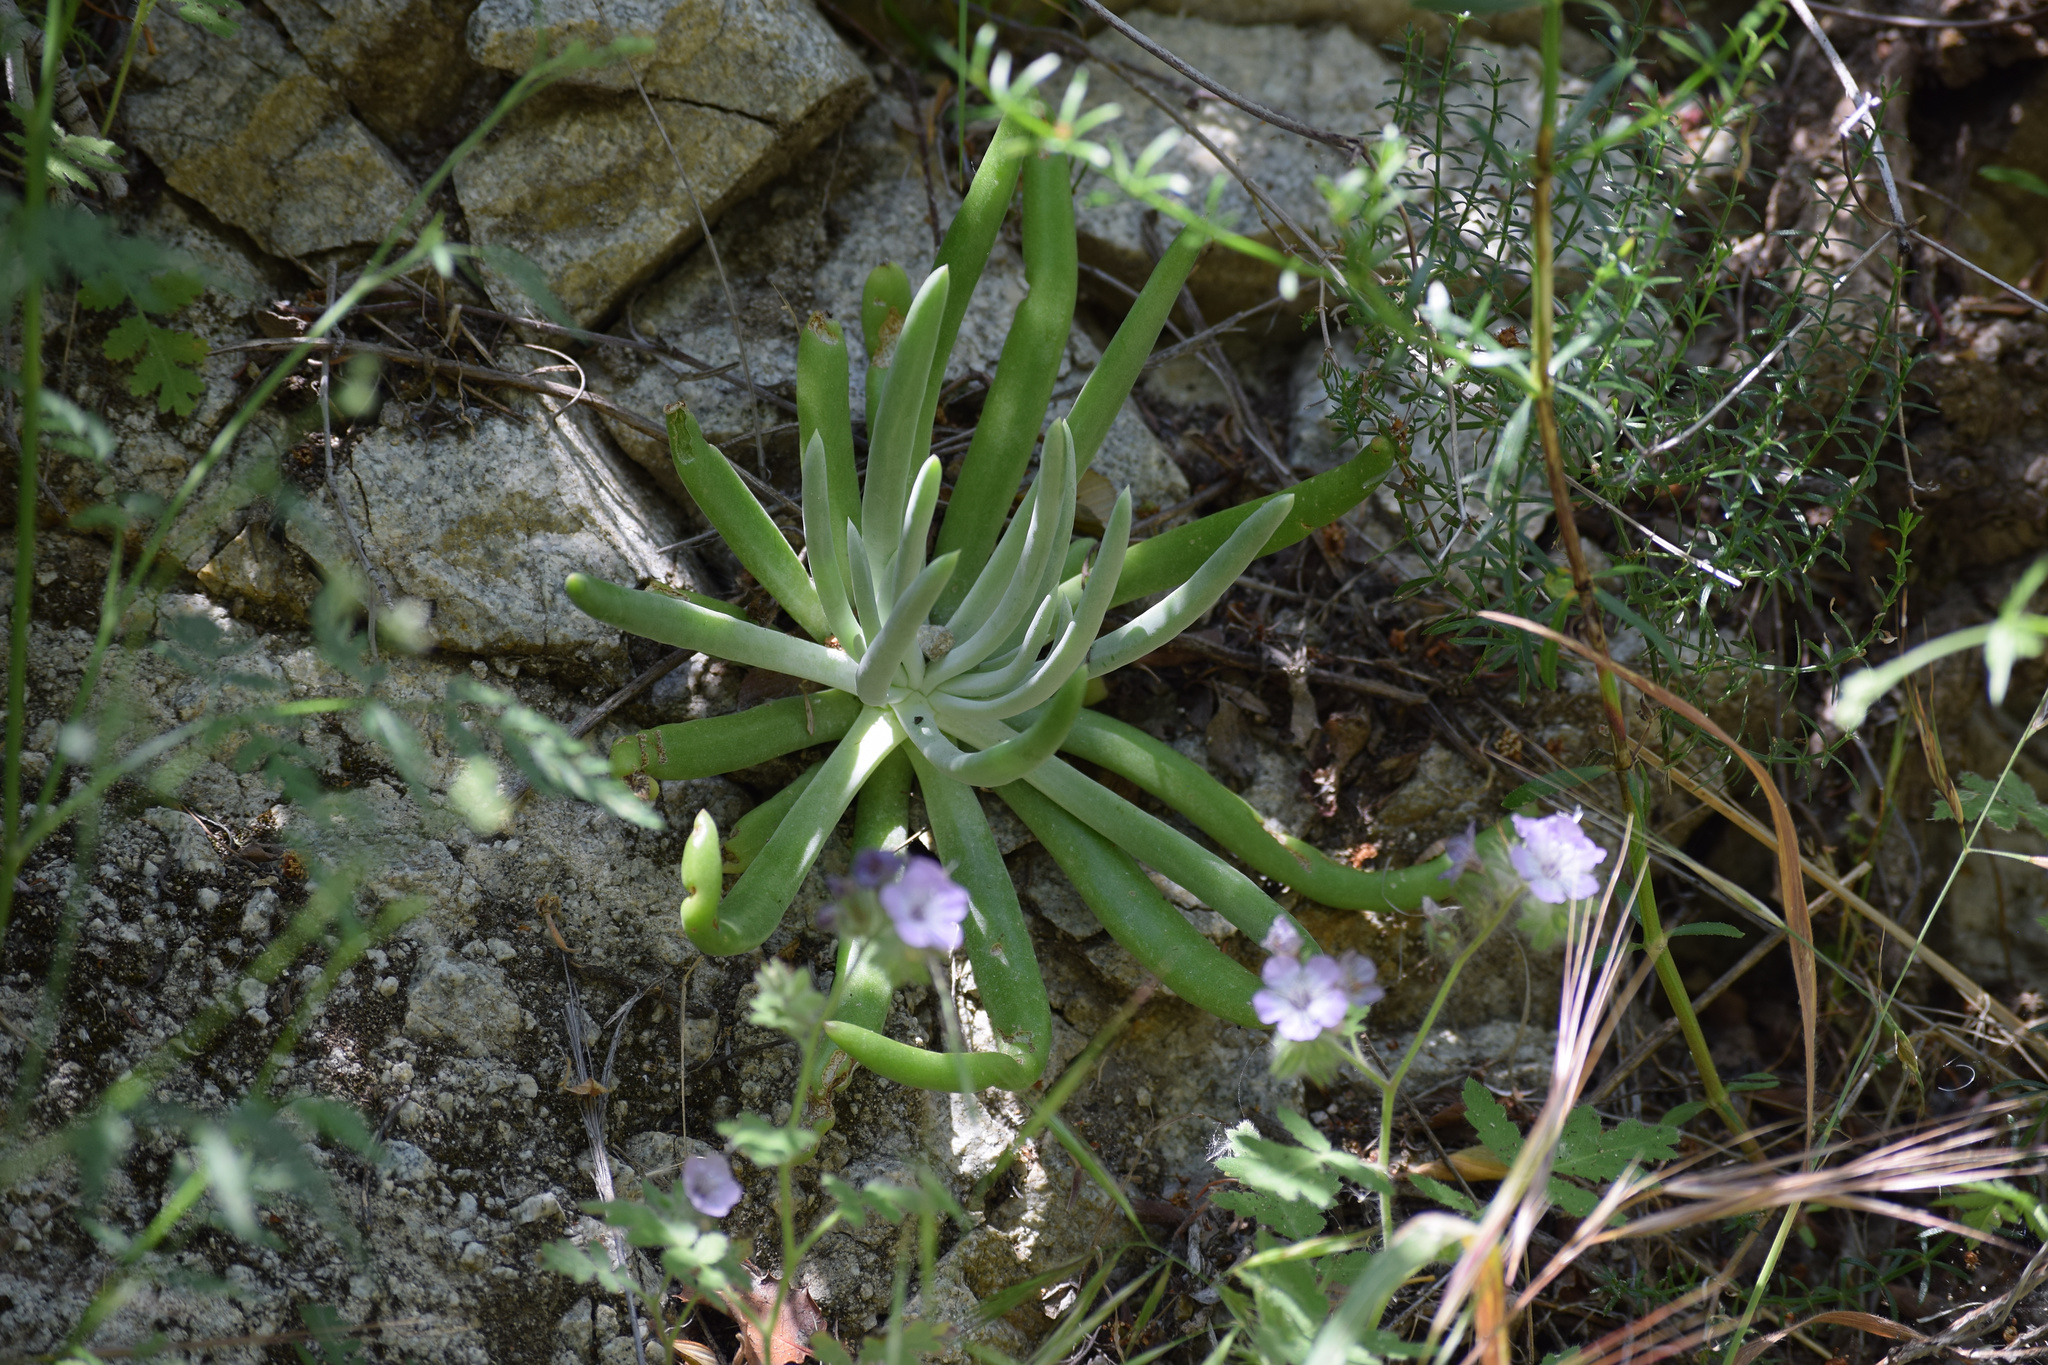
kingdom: Plantae
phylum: Tracheophyta
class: Magnoliopsida
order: Saxifragales
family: Crassulaceae
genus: Dudleya
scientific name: Dudleya densiflora
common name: San gabriel mountains dudleya
